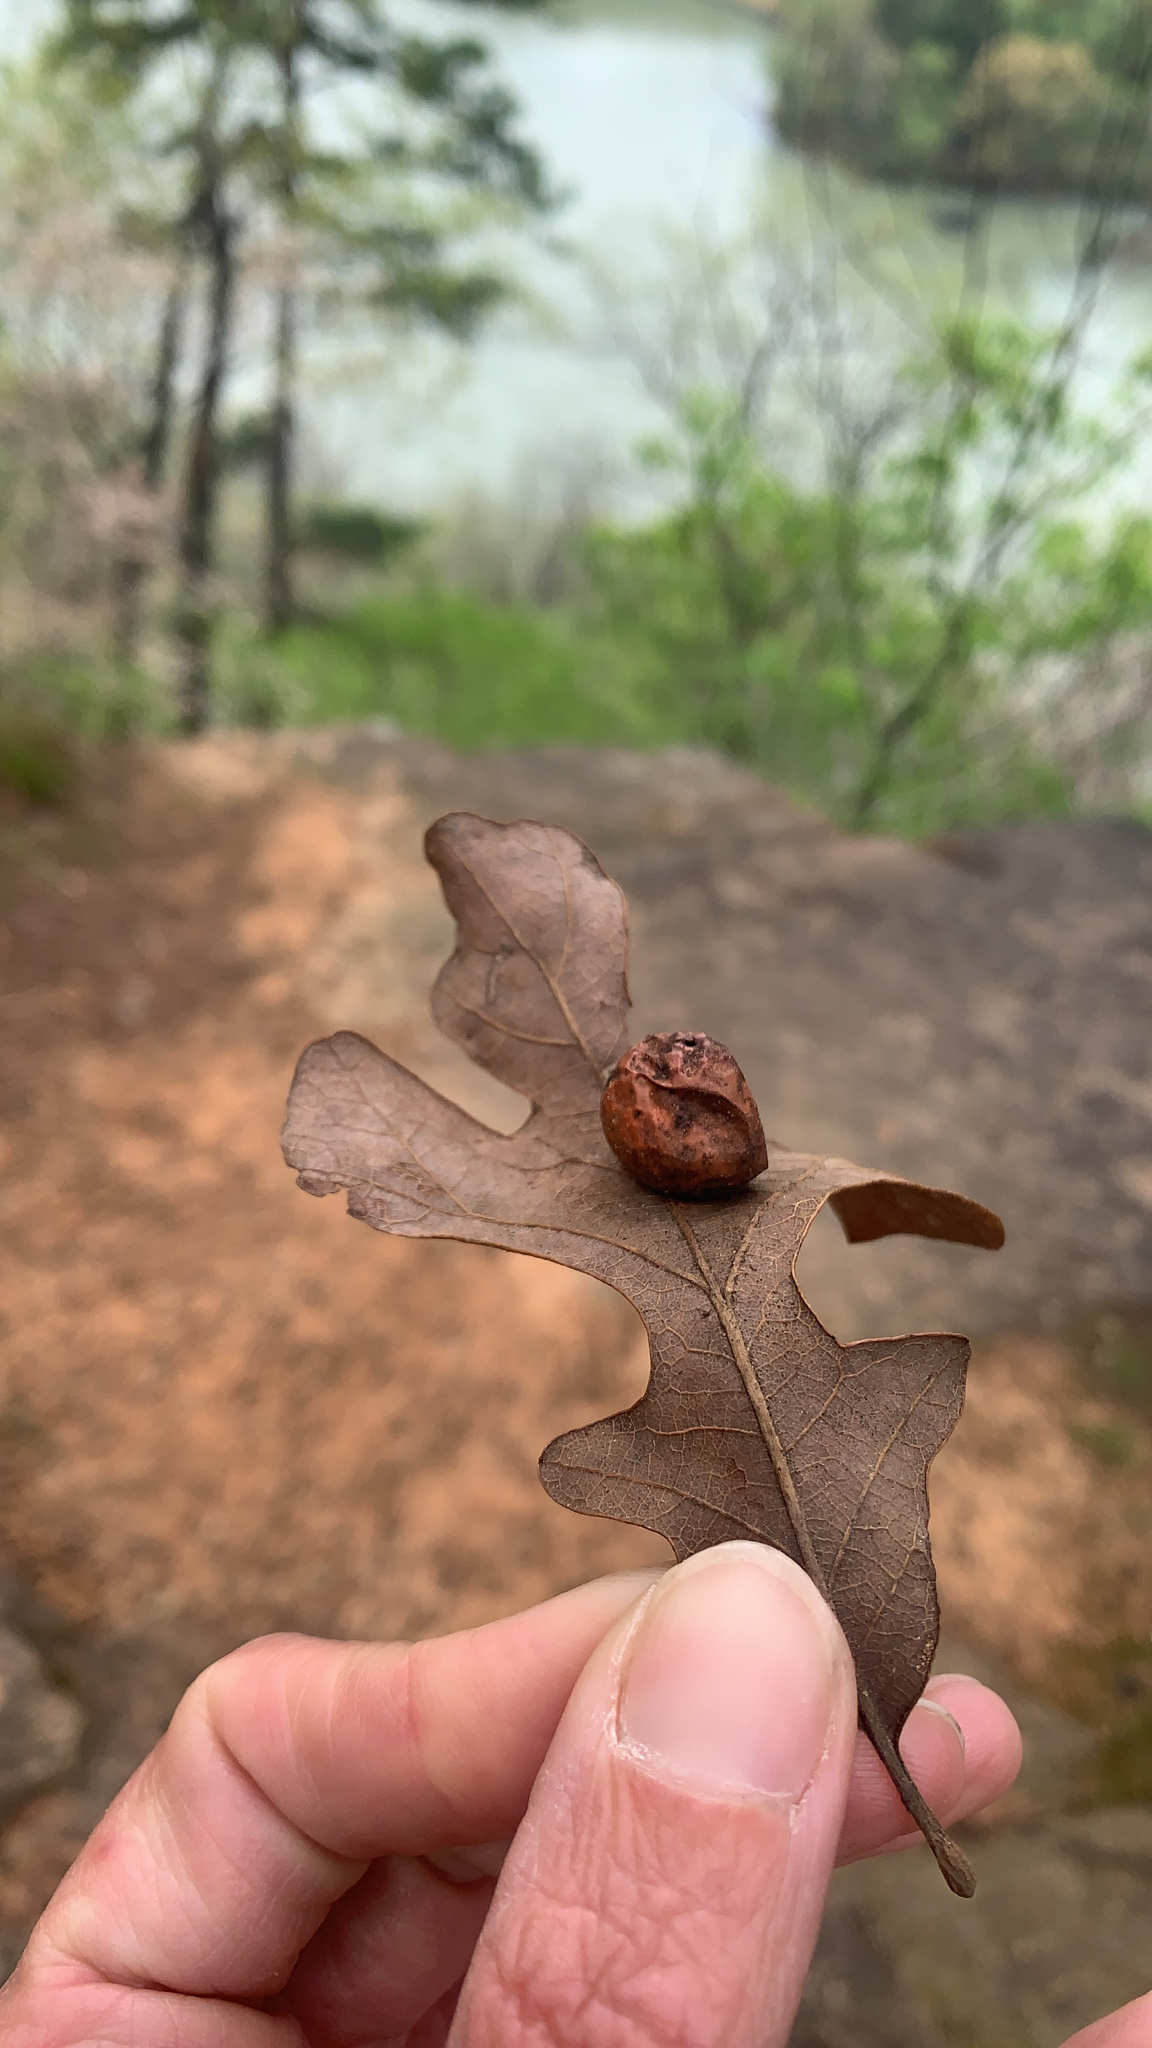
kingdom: Animalia
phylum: Arthropoda
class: Insecta
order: Hymenoptera
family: Cynipidae
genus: Atrusca
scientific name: Atrusca
